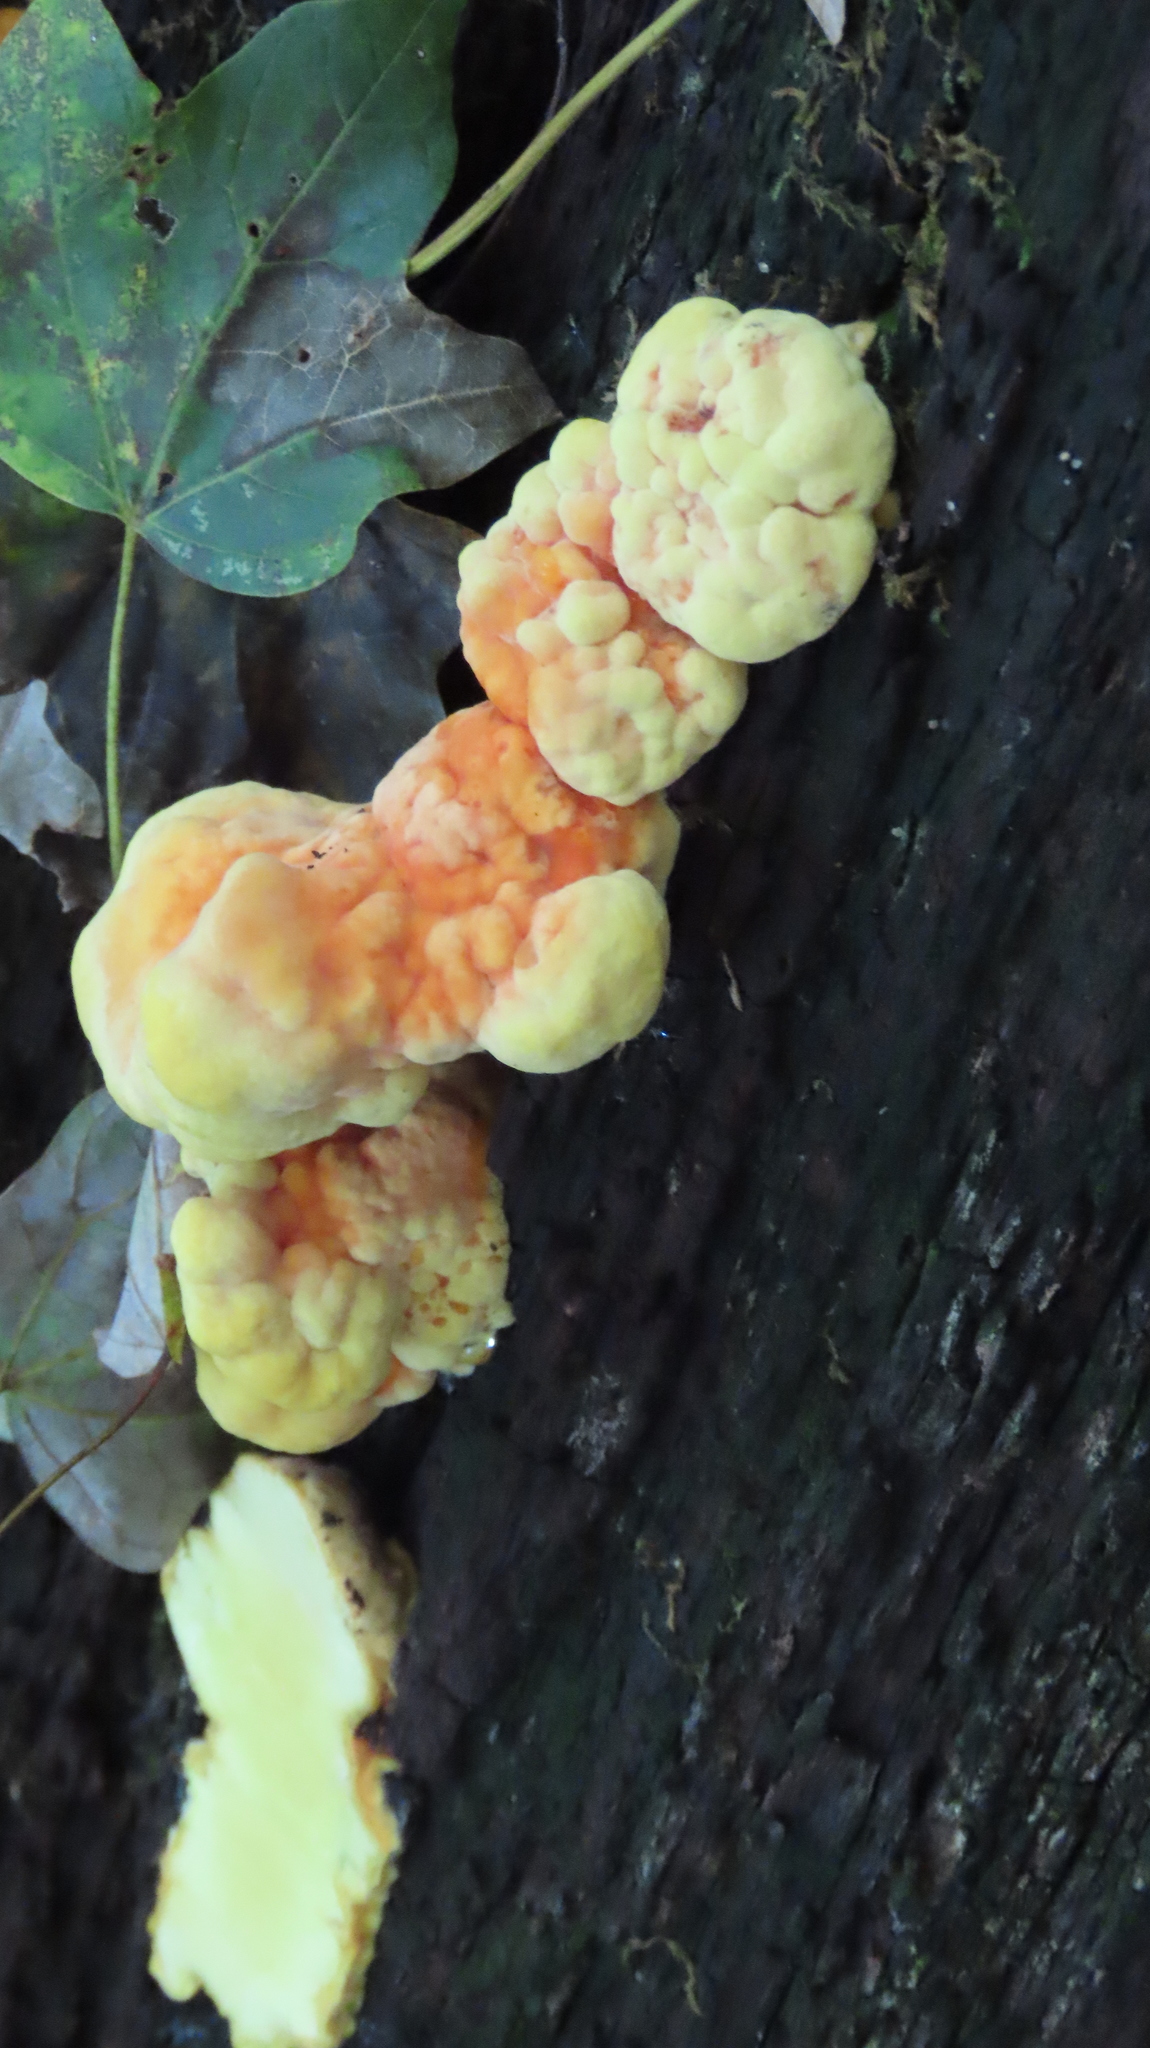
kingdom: Fungi
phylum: Basidiomycota
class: Agaricomycetes
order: Polyporales
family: Laetiporaceae
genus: Laetiporus
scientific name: Laetiporus sulphureus
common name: Chicken of the woods
